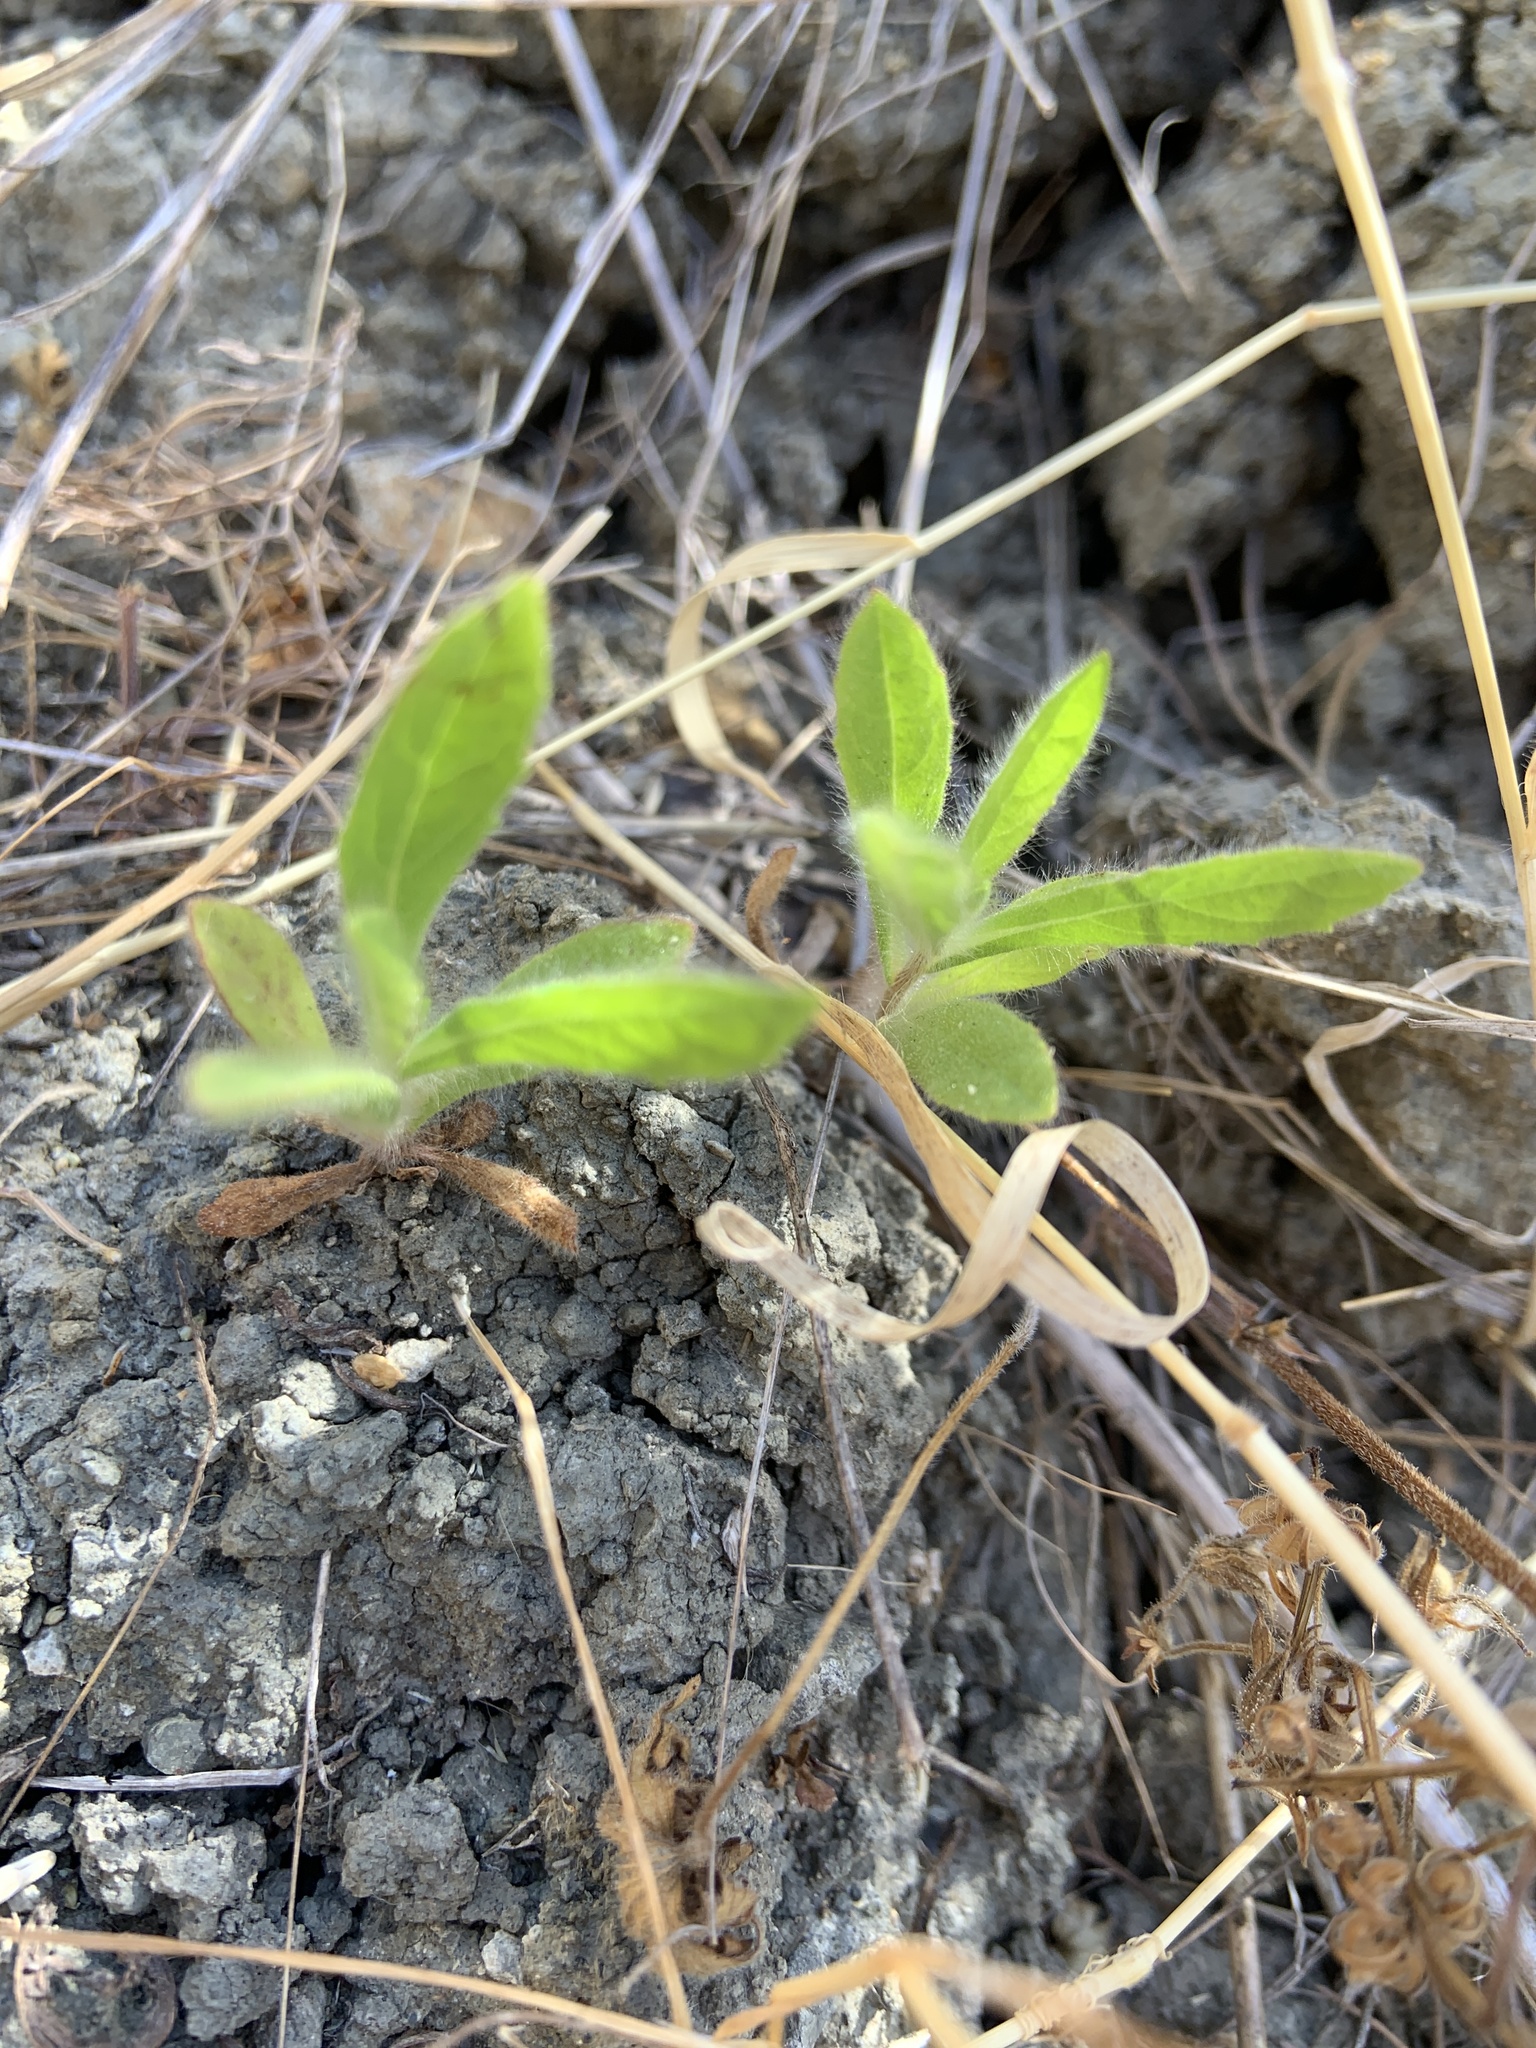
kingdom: Plantae
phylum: Tracheophyta
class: Magnoliopsida
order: Asterales
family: Asteraceae
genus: Dittrichia
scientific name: Dittrichia graveolens
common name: Stinking fleabane
